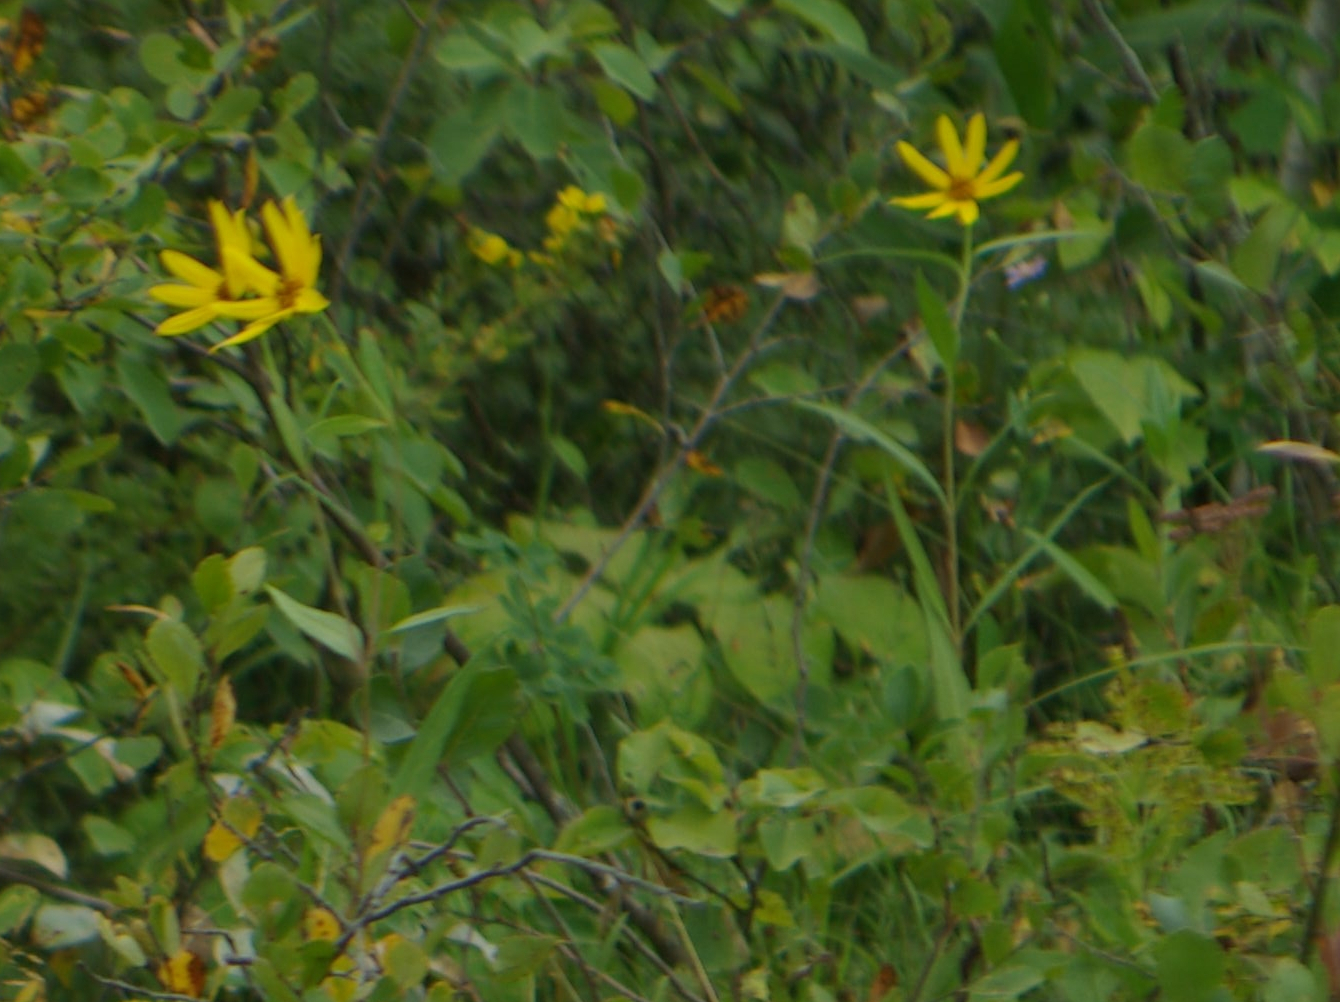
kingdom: Plantae
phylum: Tracheophyta
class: Magnoliopsida
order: Asterales
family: Asteraceae
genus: Helianthus
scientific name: Helianthus pauciflorus
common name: Stiff sunflower
